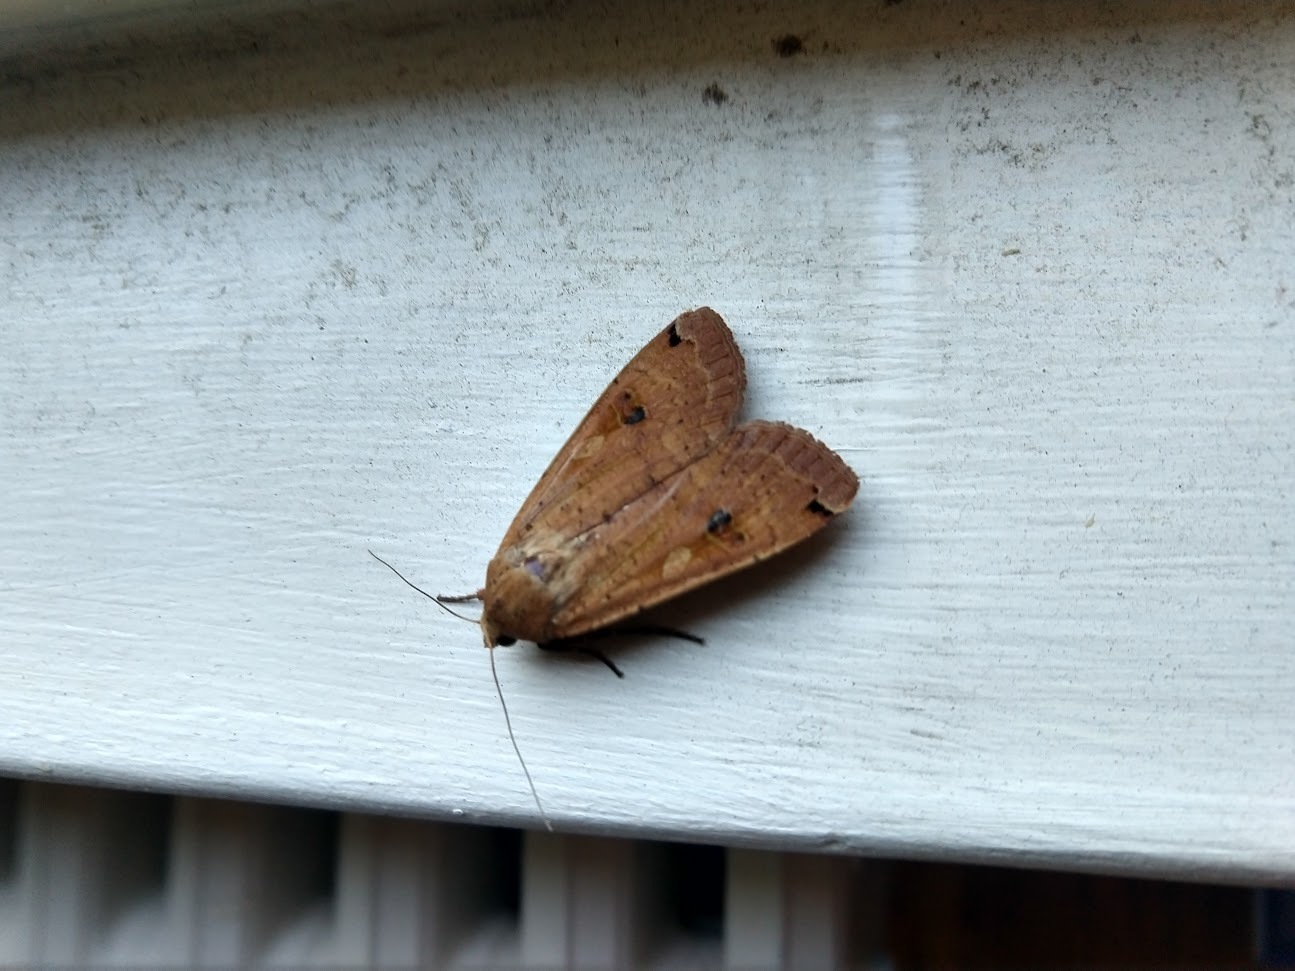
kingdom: Animalia
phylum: Arthropoda
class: Insecta
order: Lepidoptera
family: Noctuidae
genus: Noctua
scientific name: Noctua pronuba
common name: Large yellow underwing
